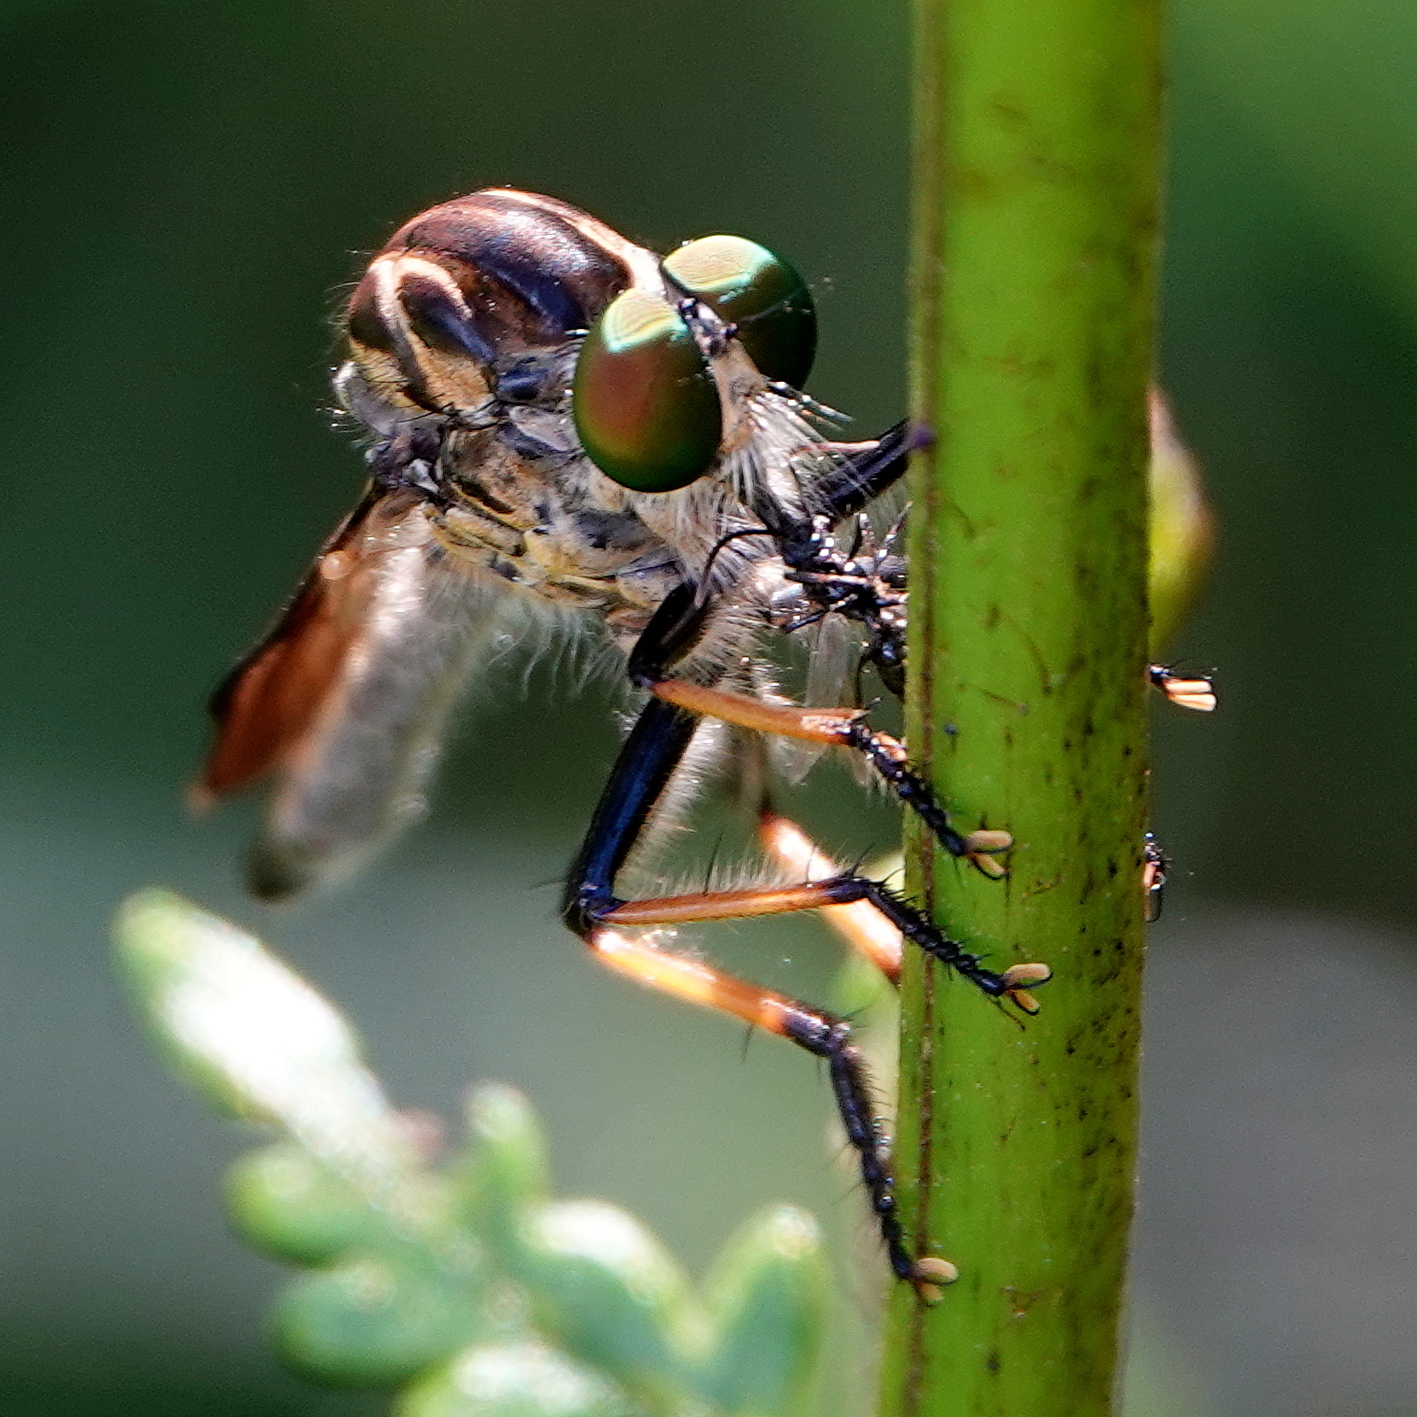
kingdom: Animalia
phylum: Arthropoda
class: Insecta
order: Diptera
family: Asilidae
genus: Ommatius
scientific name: Ommatius coeraebus
